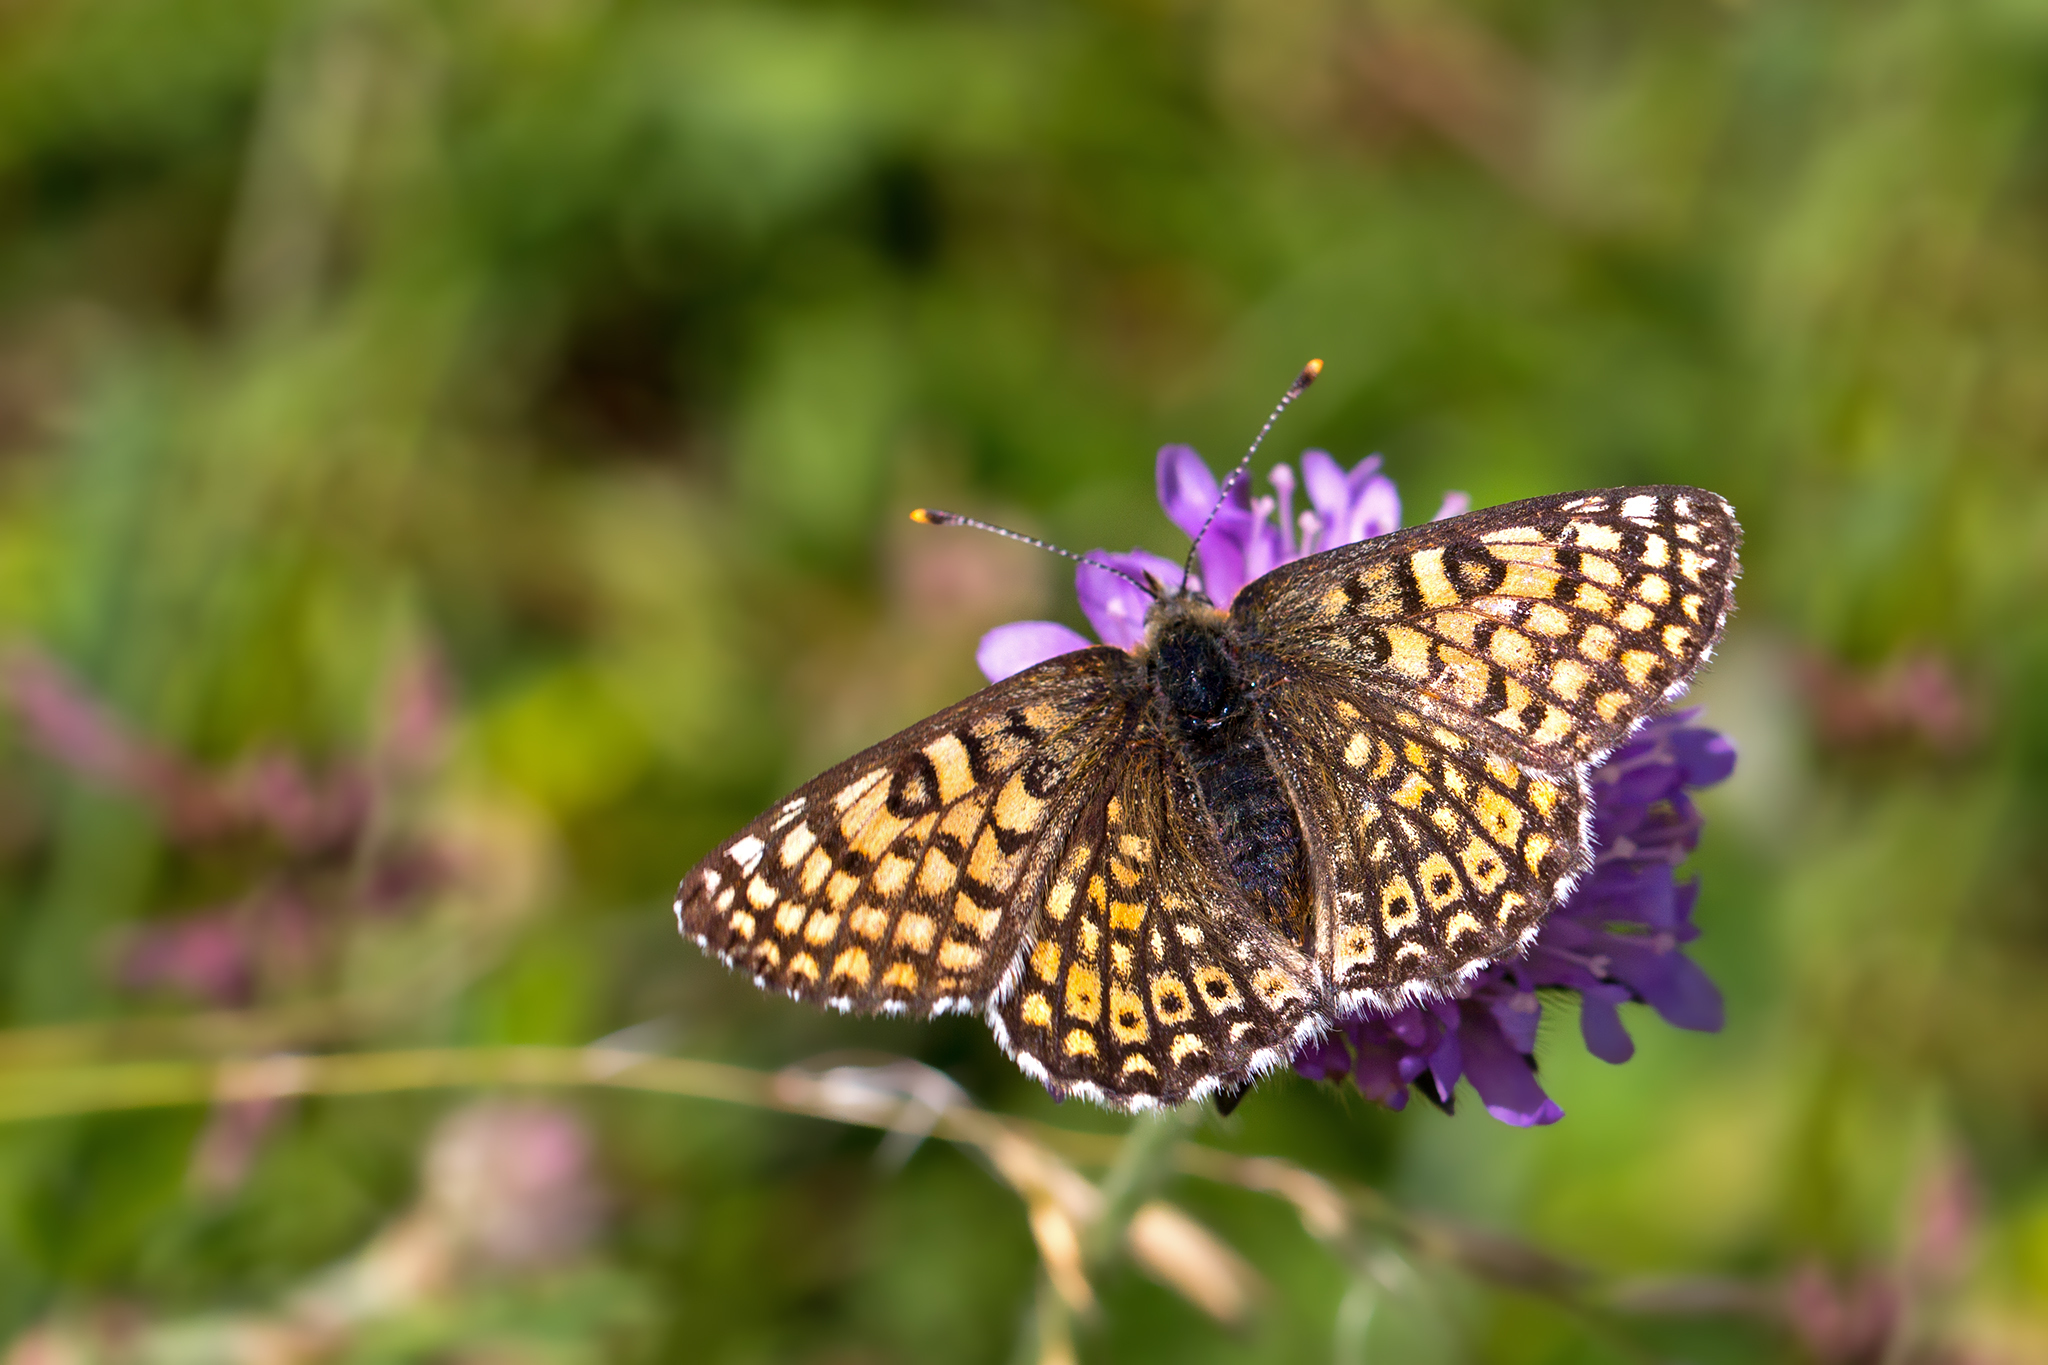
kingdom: Animalia
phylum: Arthropoda
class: Insecta
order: Lepidoptera
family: Nymphalidae
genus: Melitaea
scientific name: Melitaea cinxia
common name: Glanville fritillary
